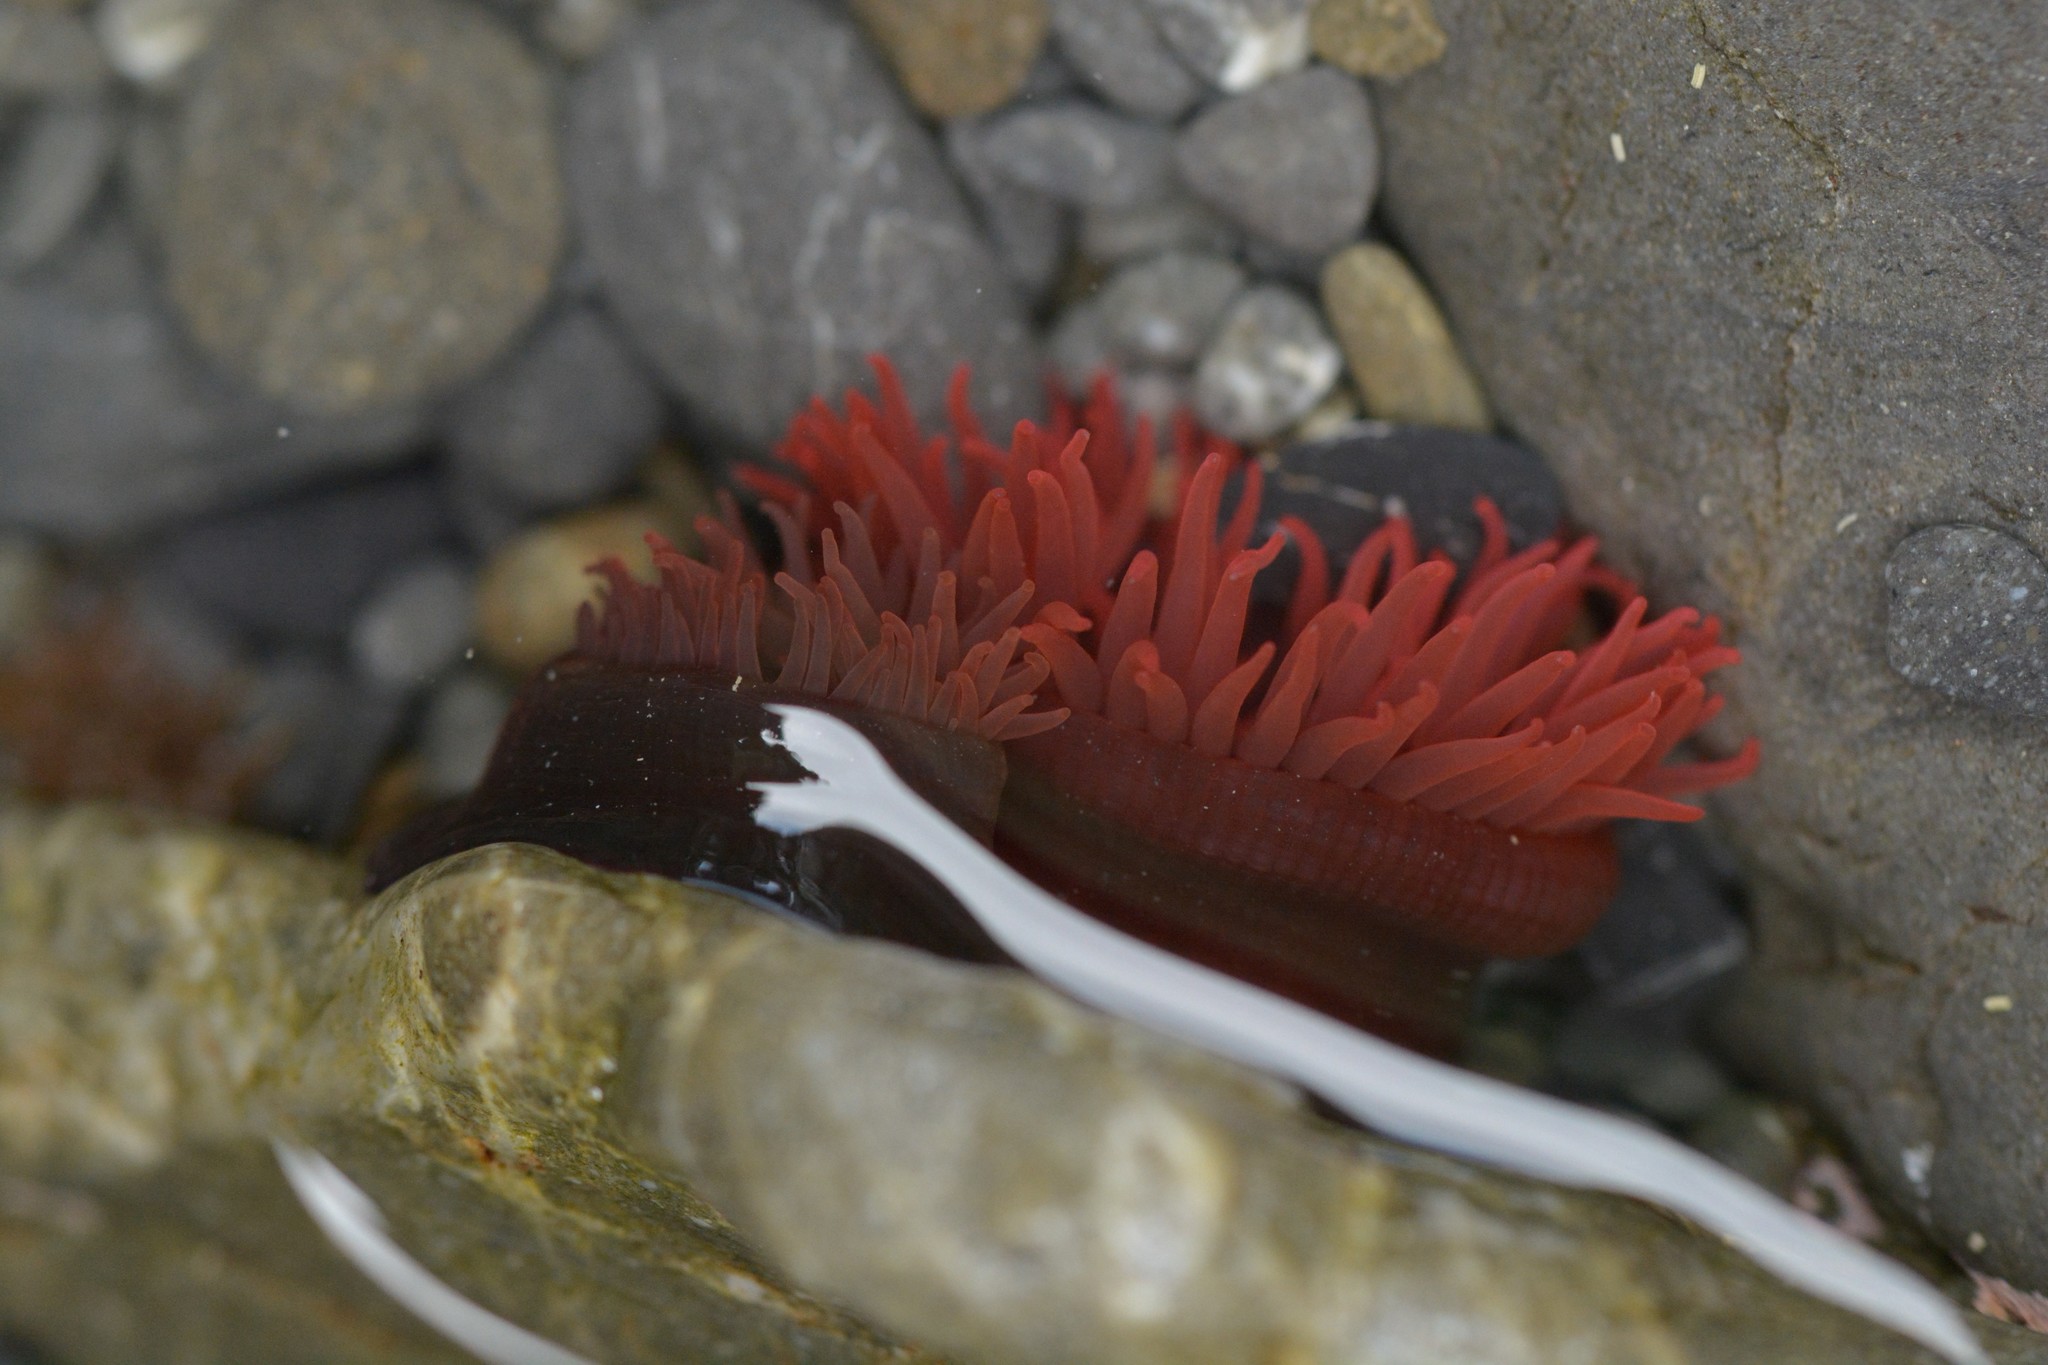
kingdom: Animalia
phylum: Cnidaria
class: Anthozoa
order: Actiniaria
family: Actiniidae
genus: Actinia
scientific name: Actinia tenebrosa
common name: Waratah anemone
